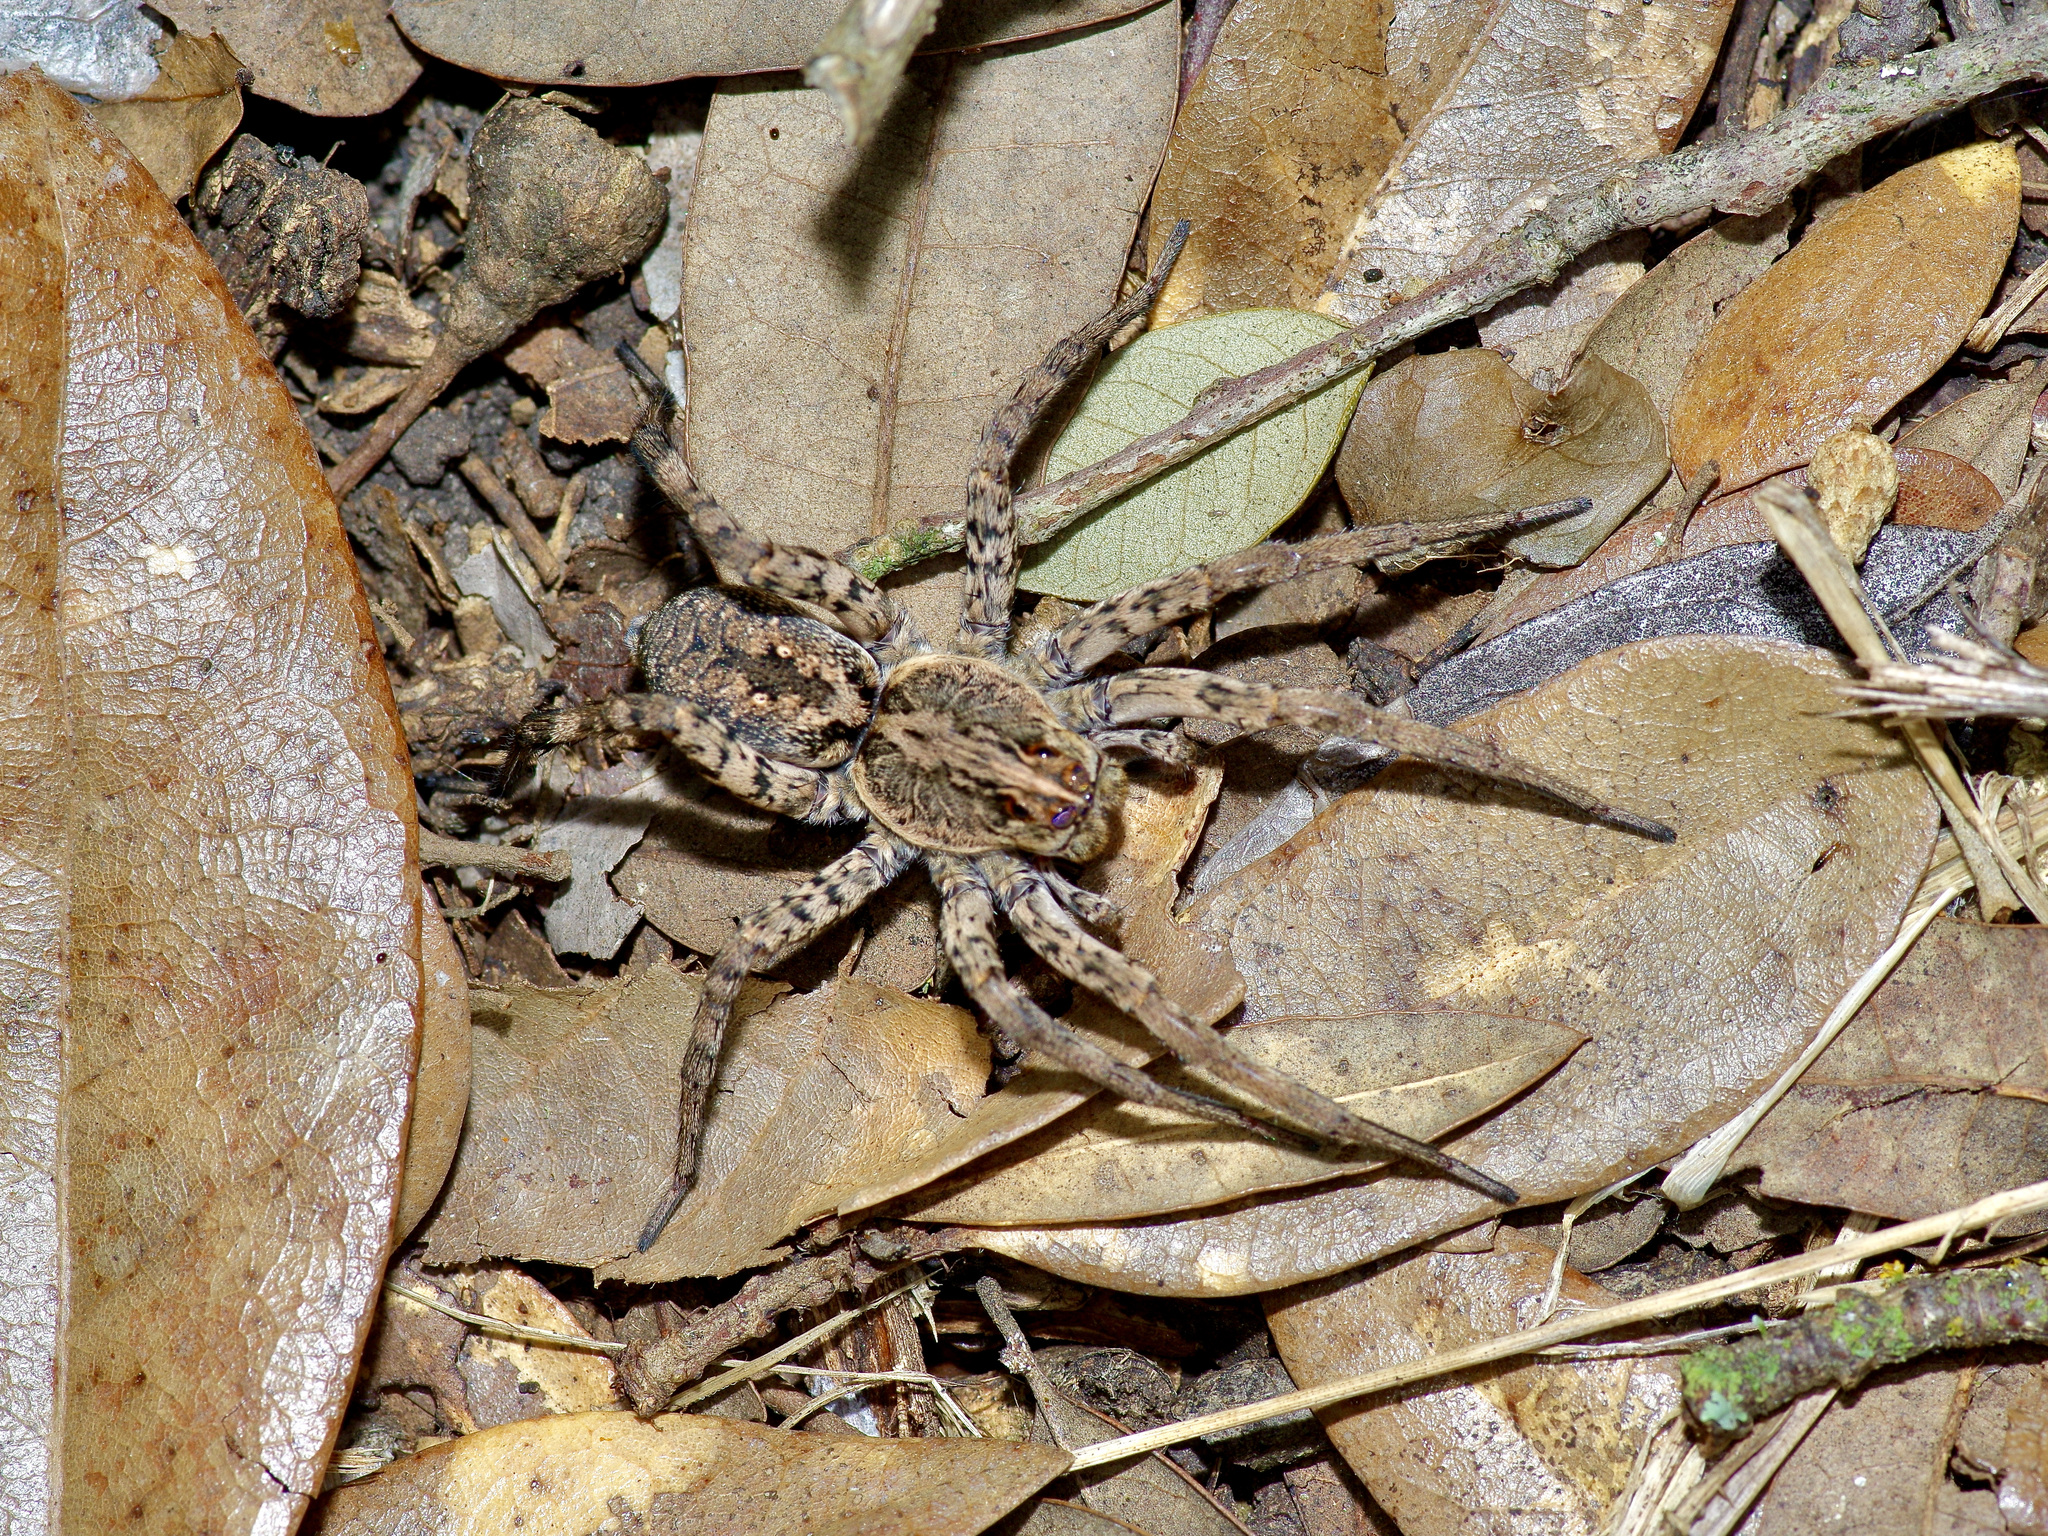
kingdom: Animalia
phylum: Arthropoda
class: Arachnida
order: Araneae
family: Lycosidae
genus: Hogna
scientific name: Hogna antelucana
